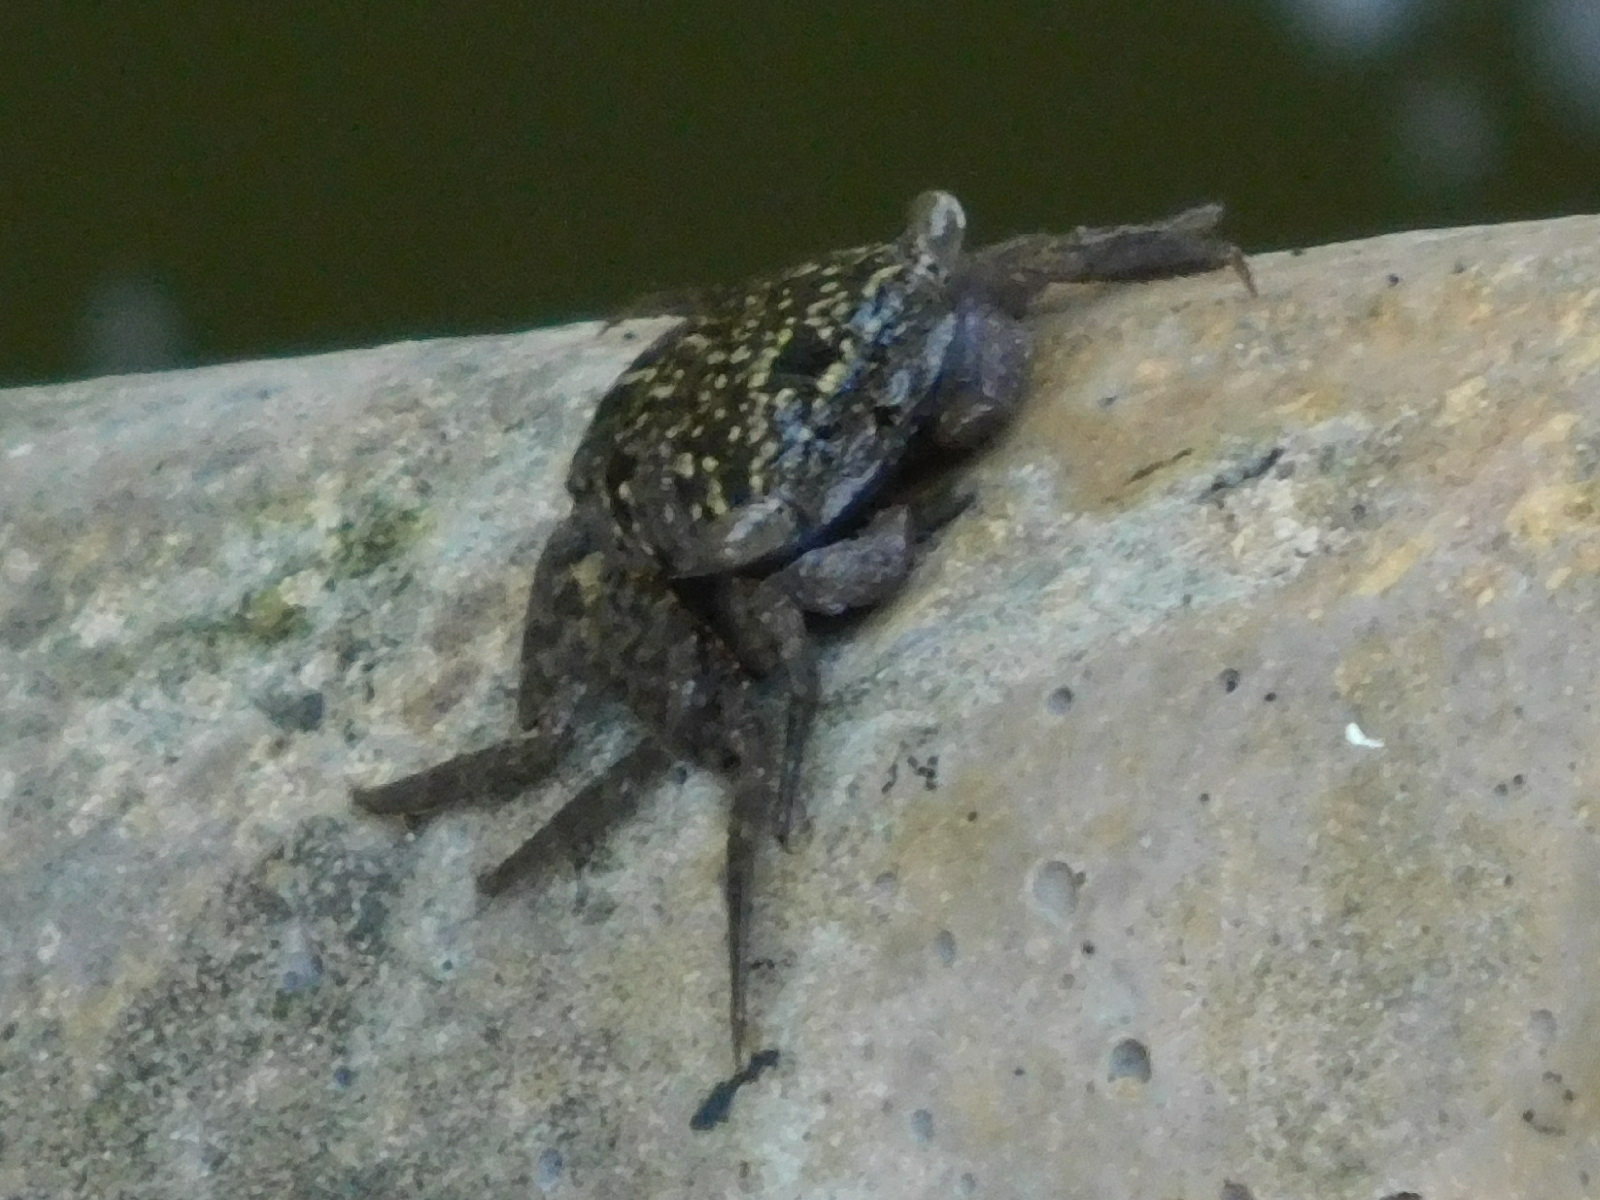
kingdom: Animalia
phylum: Arthropoda
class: Malacostraca
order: Decapoda
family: Sesarmidae
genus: Aratus
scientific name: Aratus pisonii
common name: Mangrove crab
